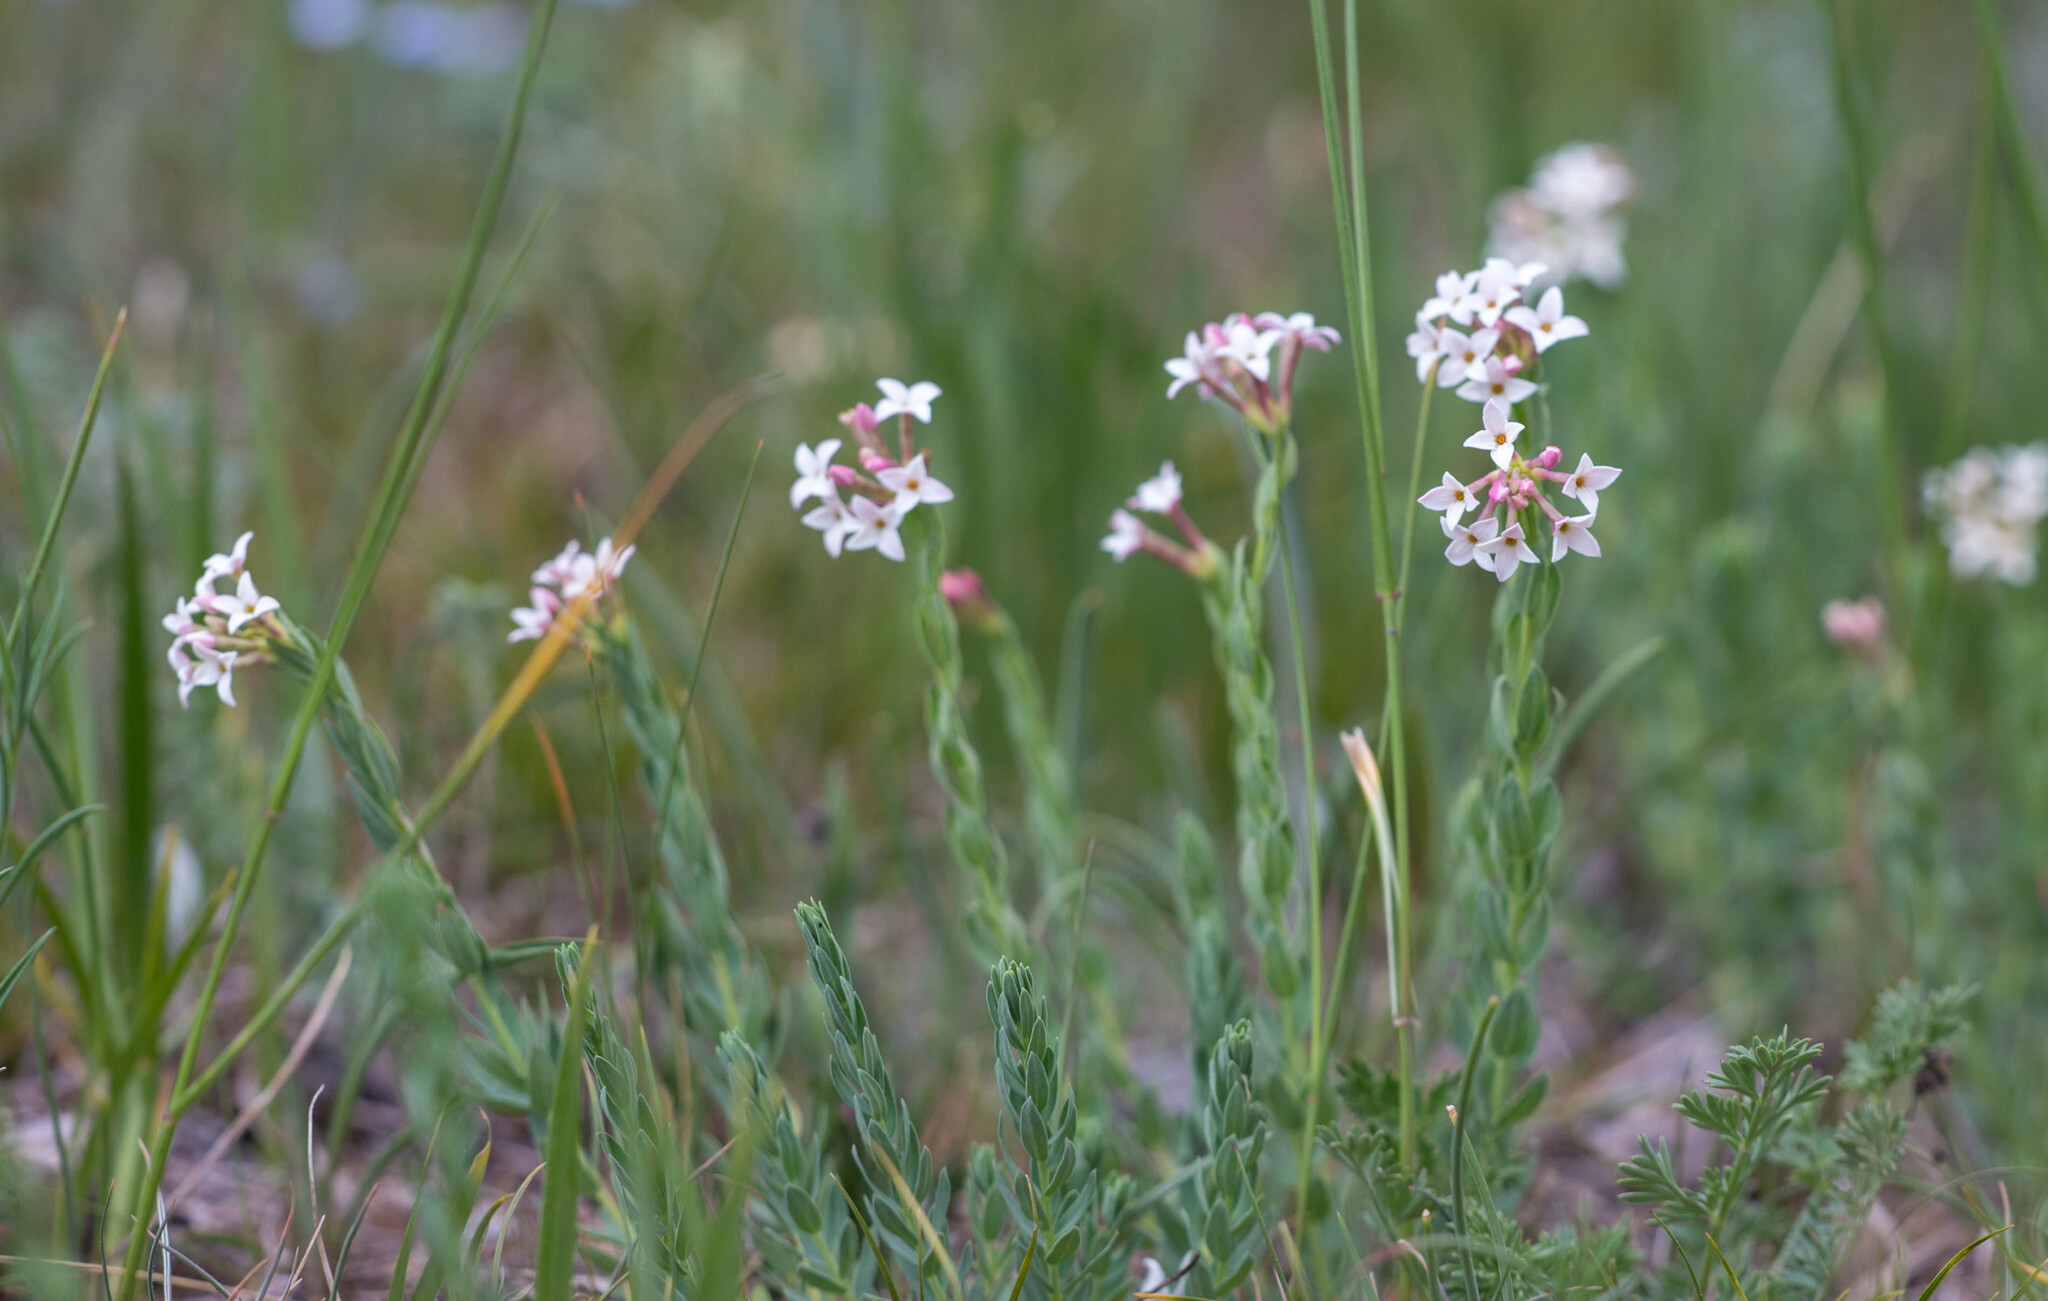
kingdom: Plantae
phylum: Tracheophyta
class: Magnoliopsida
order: Malvales
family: Thymelaeaceae
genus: Diarthron
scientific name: Diarthron altaicum
